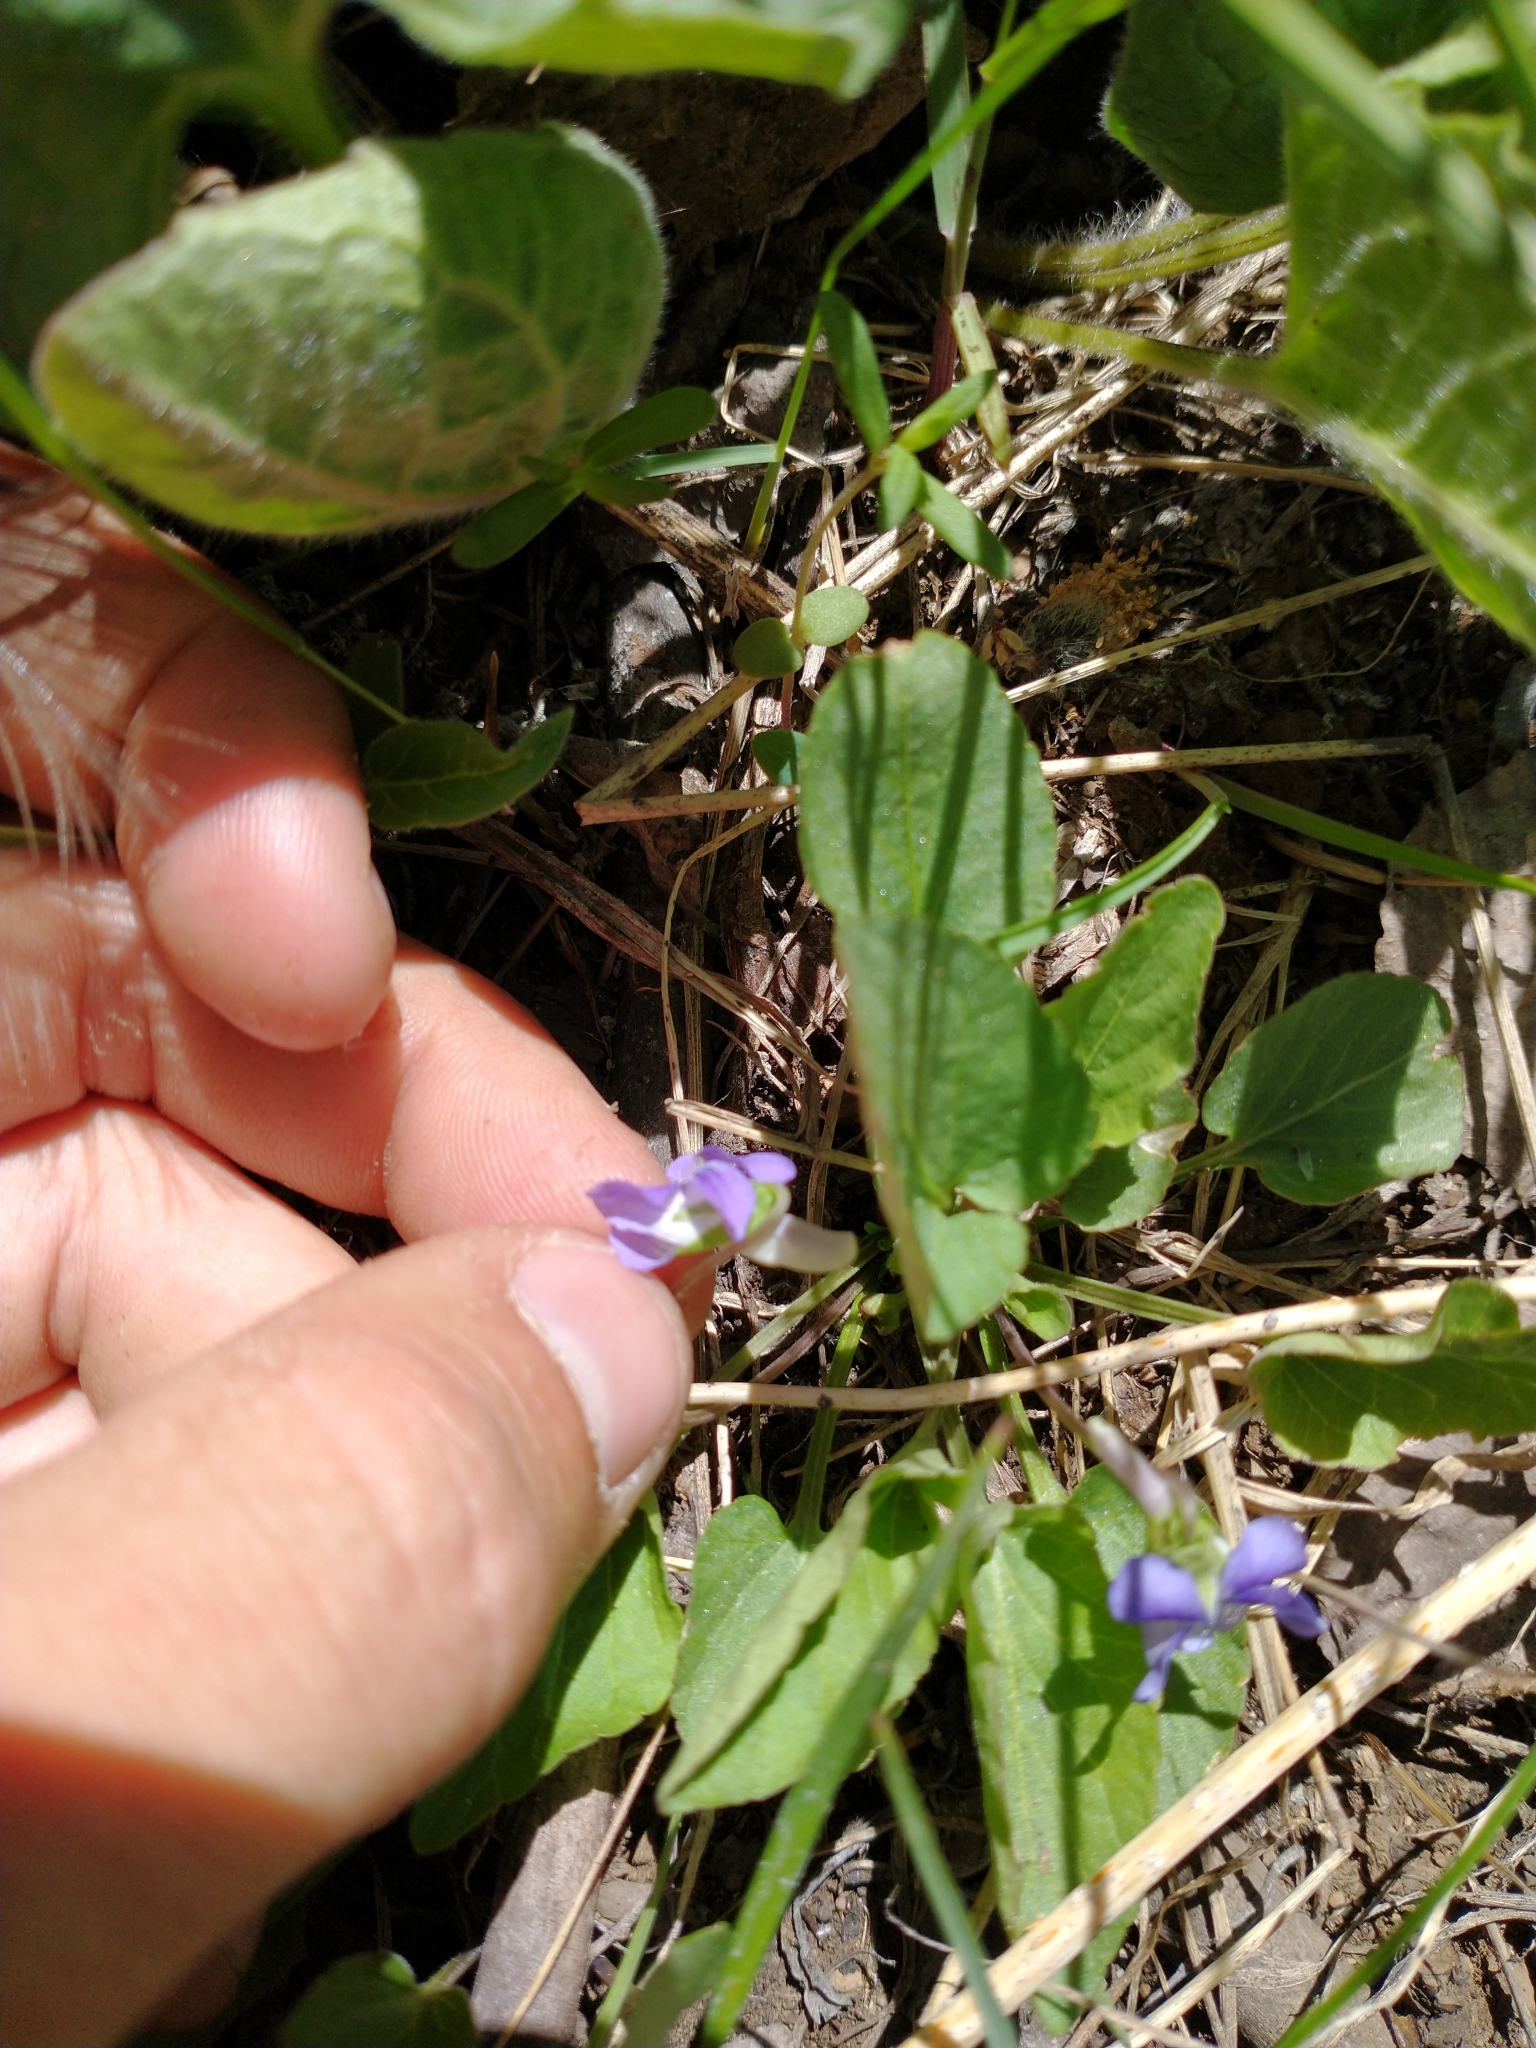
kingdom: Plantae
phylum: Tracheophyta
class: Magnoliopsida
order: Malpighiales
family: Violaceae
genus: Viola
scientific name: Viola adunca
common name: Sand violet
